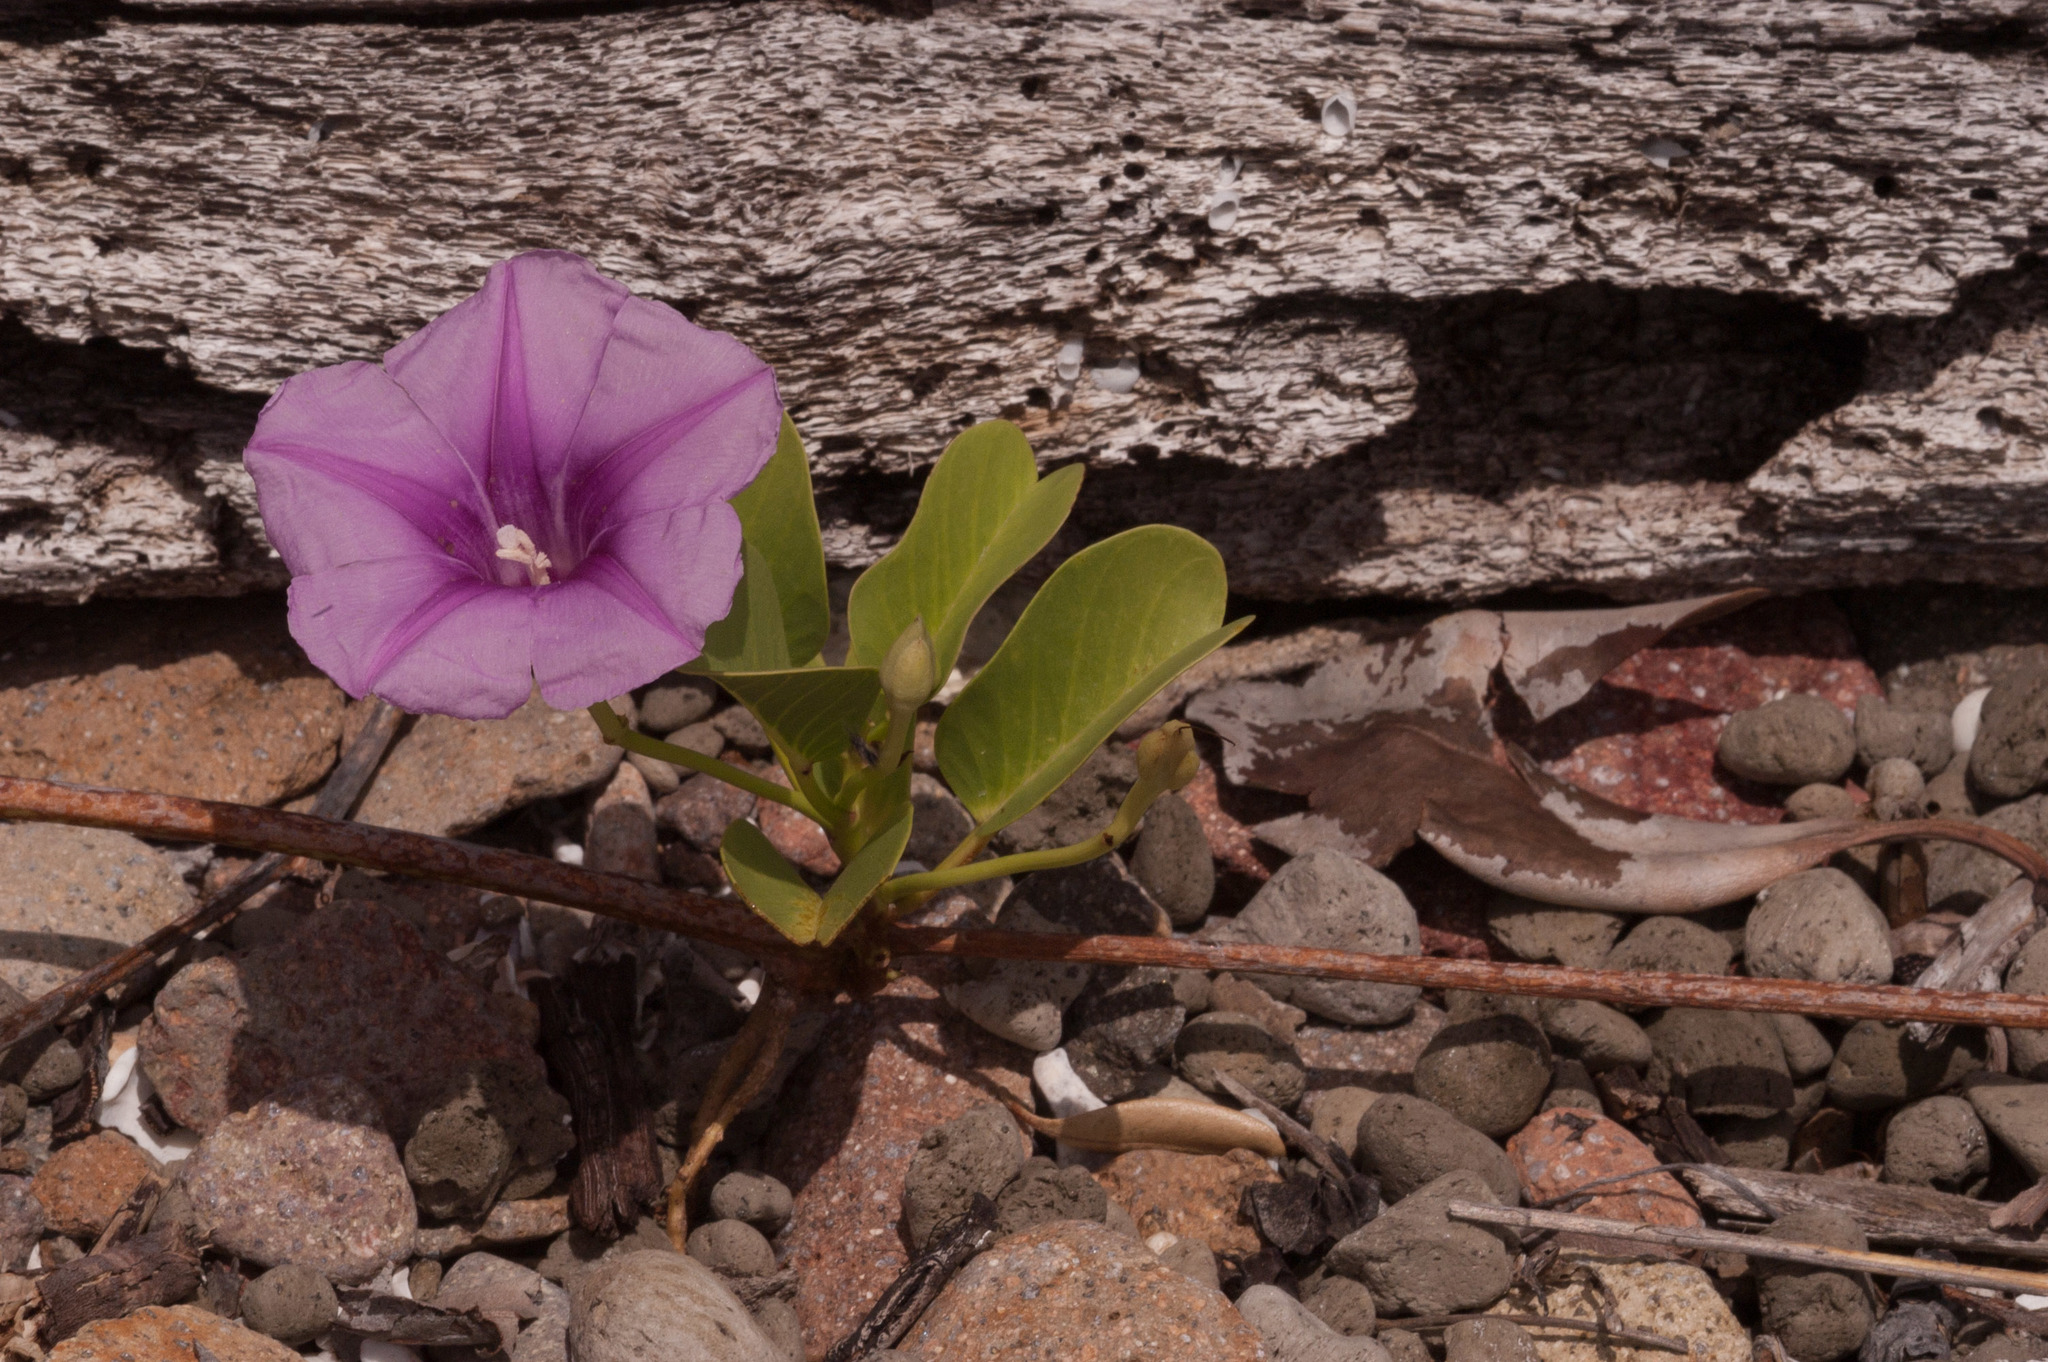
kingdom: Plantae
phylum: Tracheophyta
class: Magnoliopsida
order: Solanales
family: Convolvulaceae
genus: Ipomoea
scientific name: Ipomoea pes-caprae
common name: Beach morning glory
